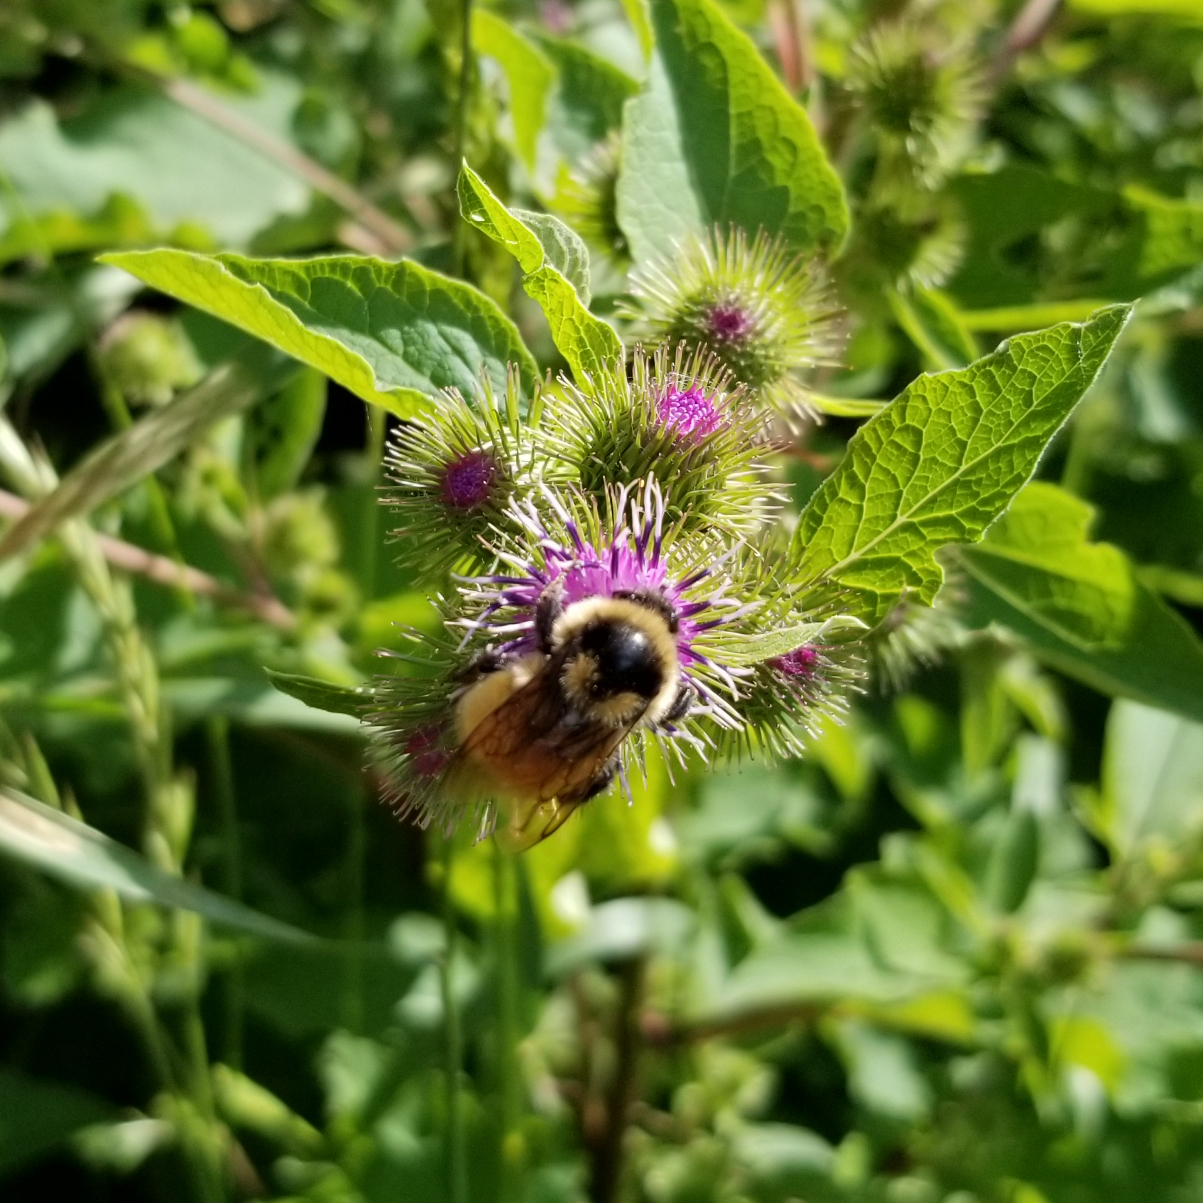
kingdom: Animalia
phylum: Arthropoda
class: Insecta
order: Hymenoptera
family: Apidae
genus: Bombus
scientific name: Bombus ternarius
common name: Tri-colored bumble bee
